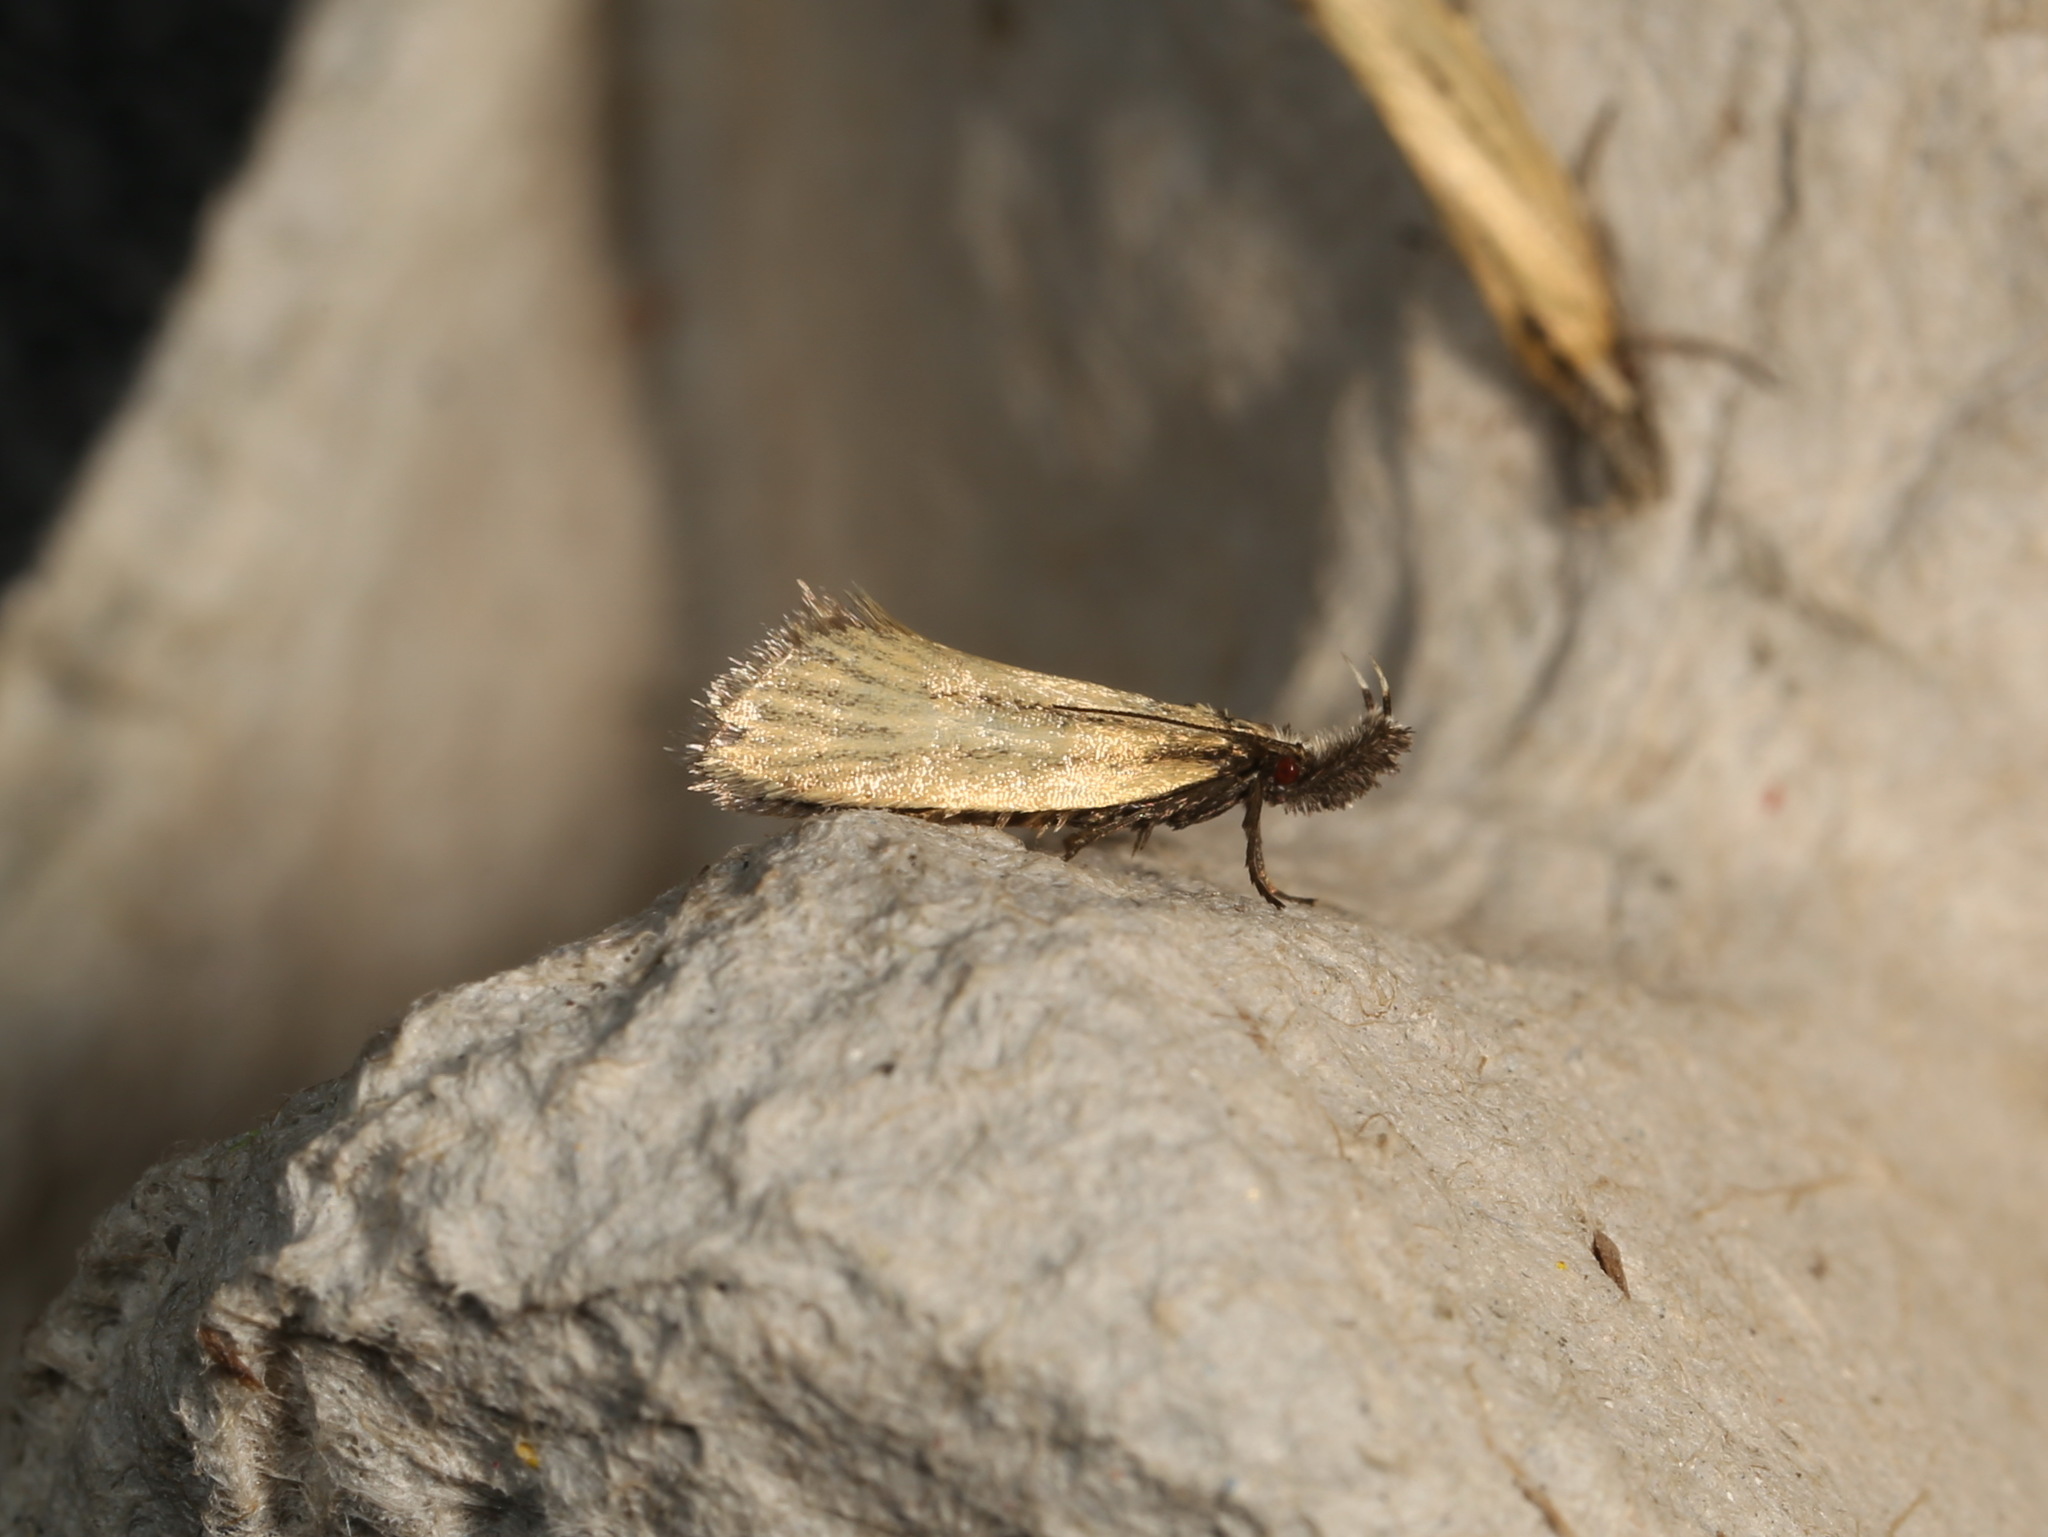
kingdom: Animalia
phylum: Arthropoda
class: Insecta
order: Lepidoptera
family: Oecophoridae
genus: Thema
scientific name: Thema protogramma
